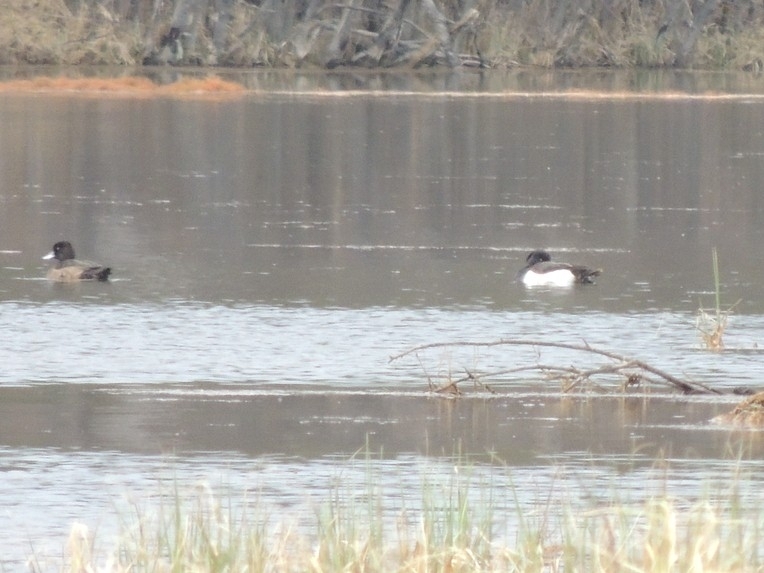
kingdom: Animalia
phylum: Chordata
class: Aves
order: Anseriformes
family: Anatidae
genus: Aythya
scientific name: Aythya fuligula
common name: Tufted duck
